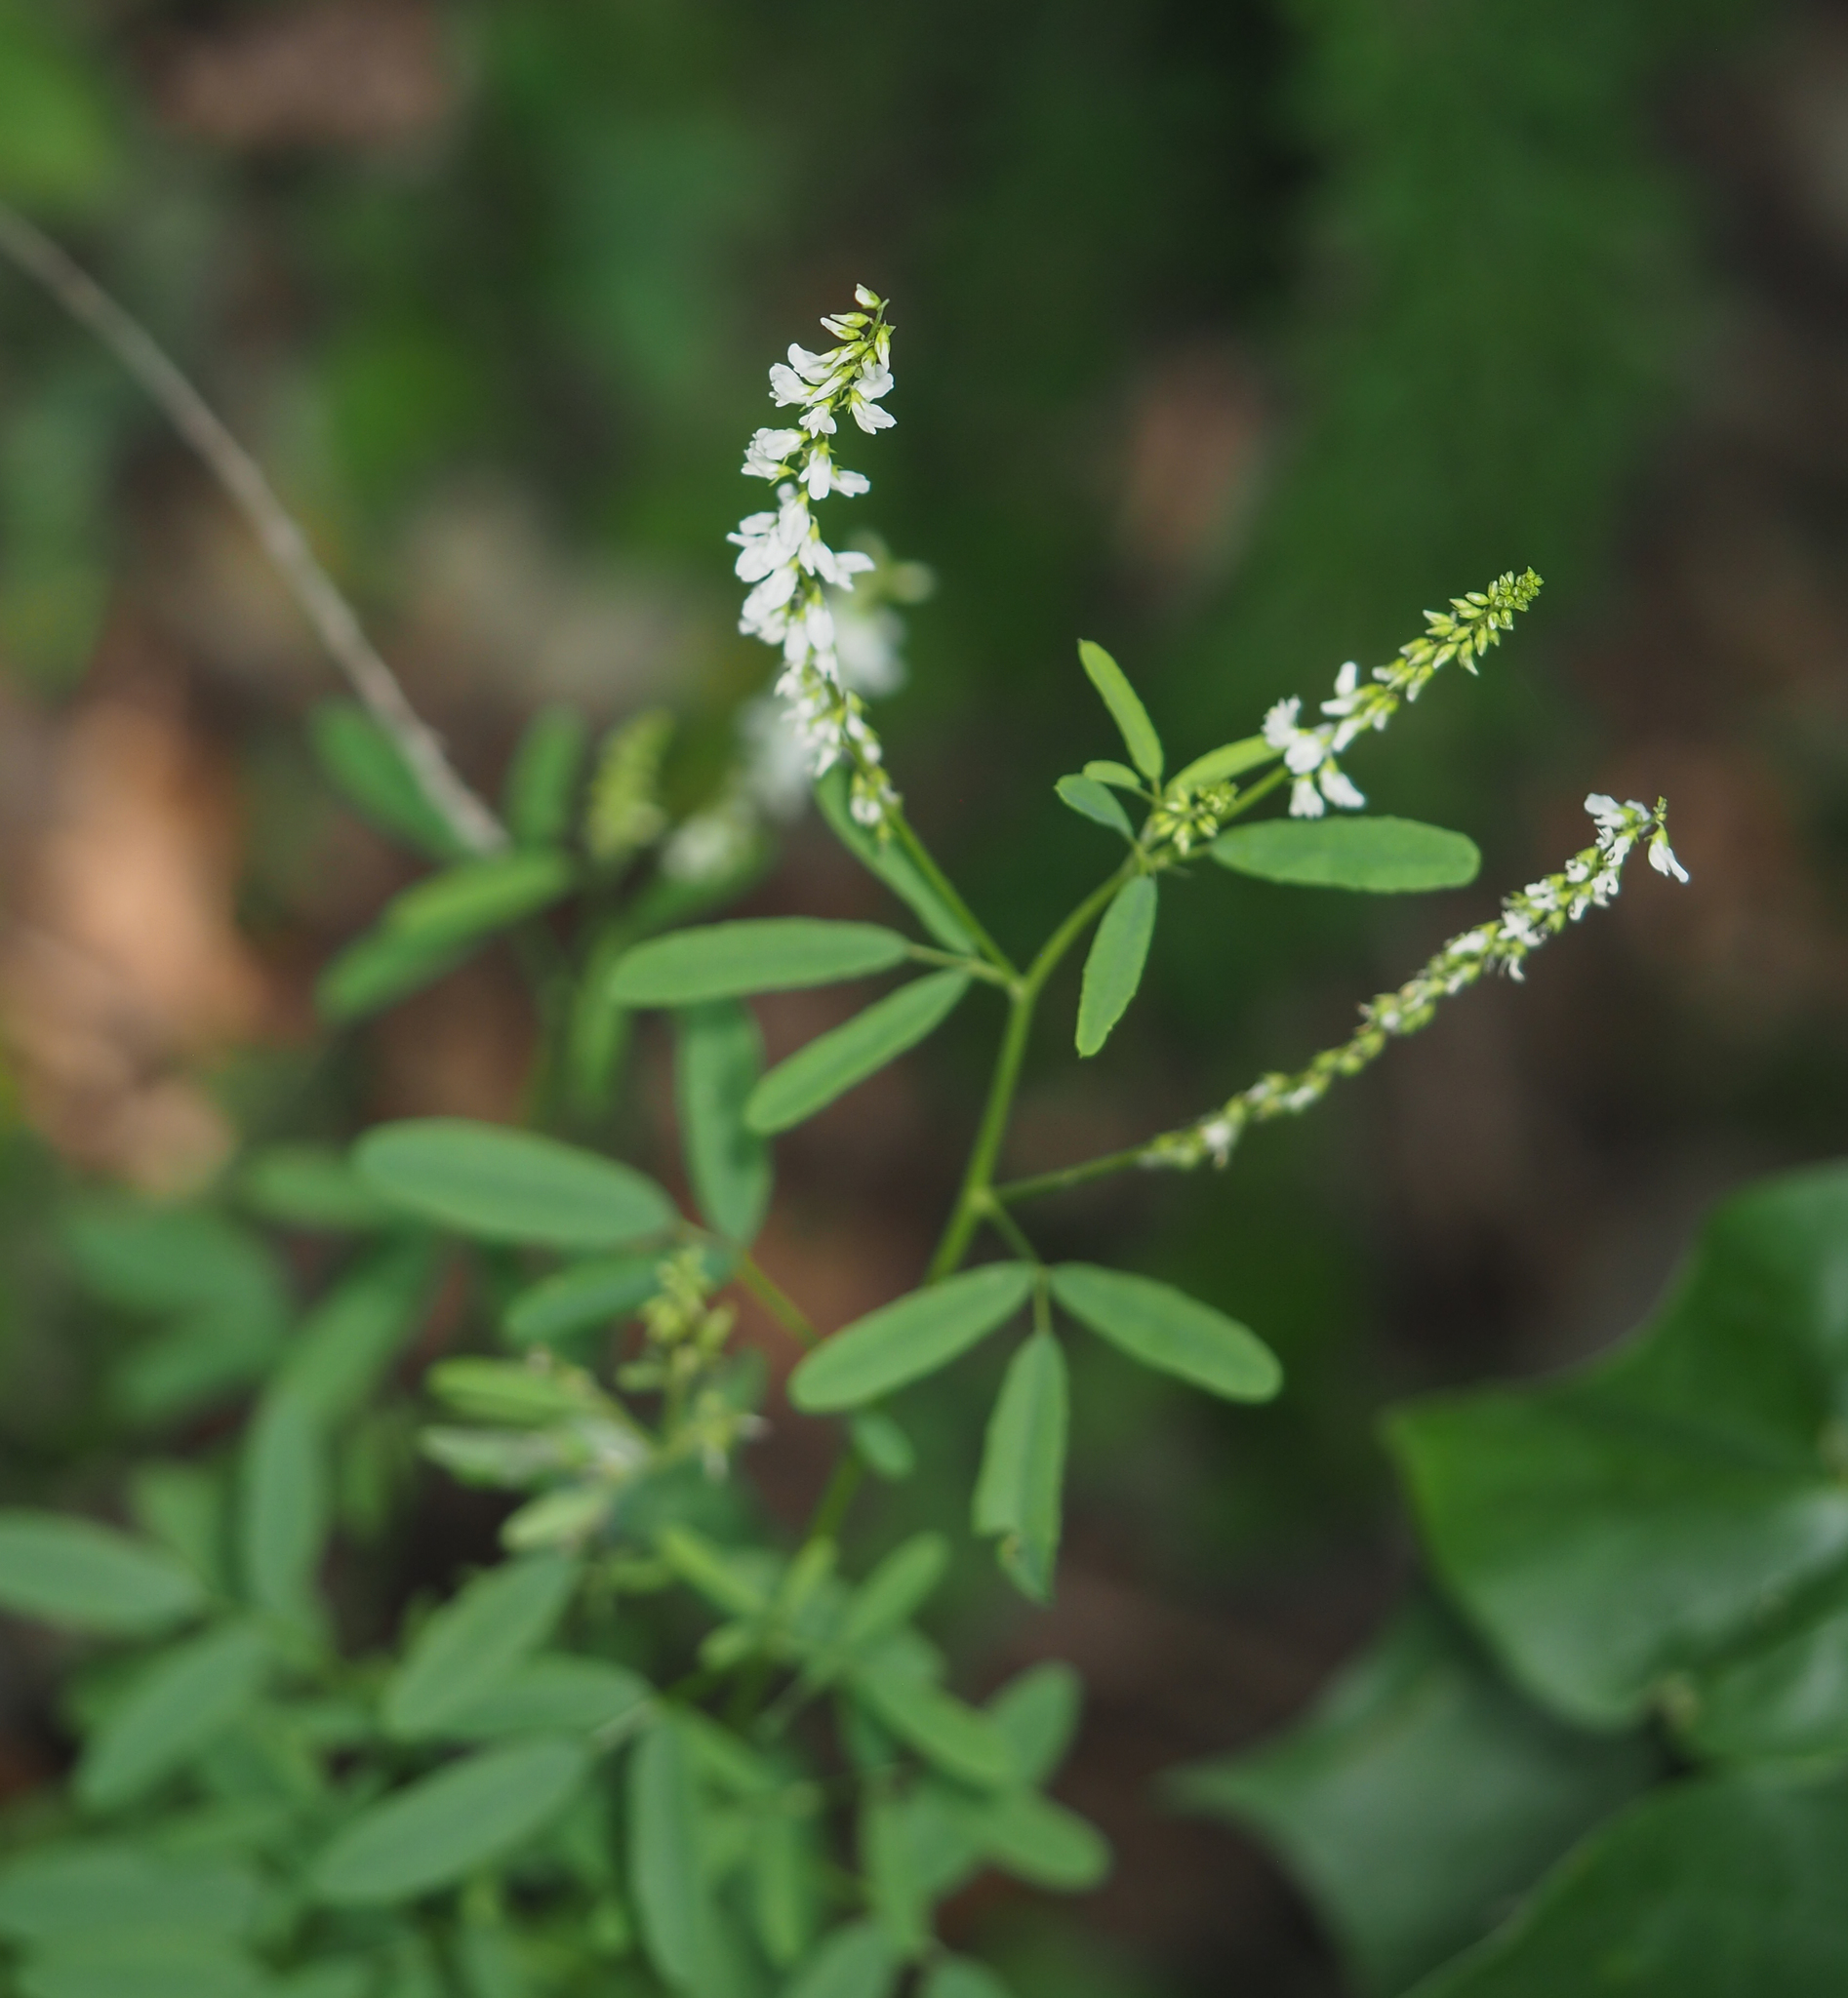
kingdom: Plantae
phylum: Tracheophyta
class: Magnoliopsida
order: Fabales
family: Fabaceae
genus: Melilotus
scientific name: Melilotus albus
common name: White melilot
